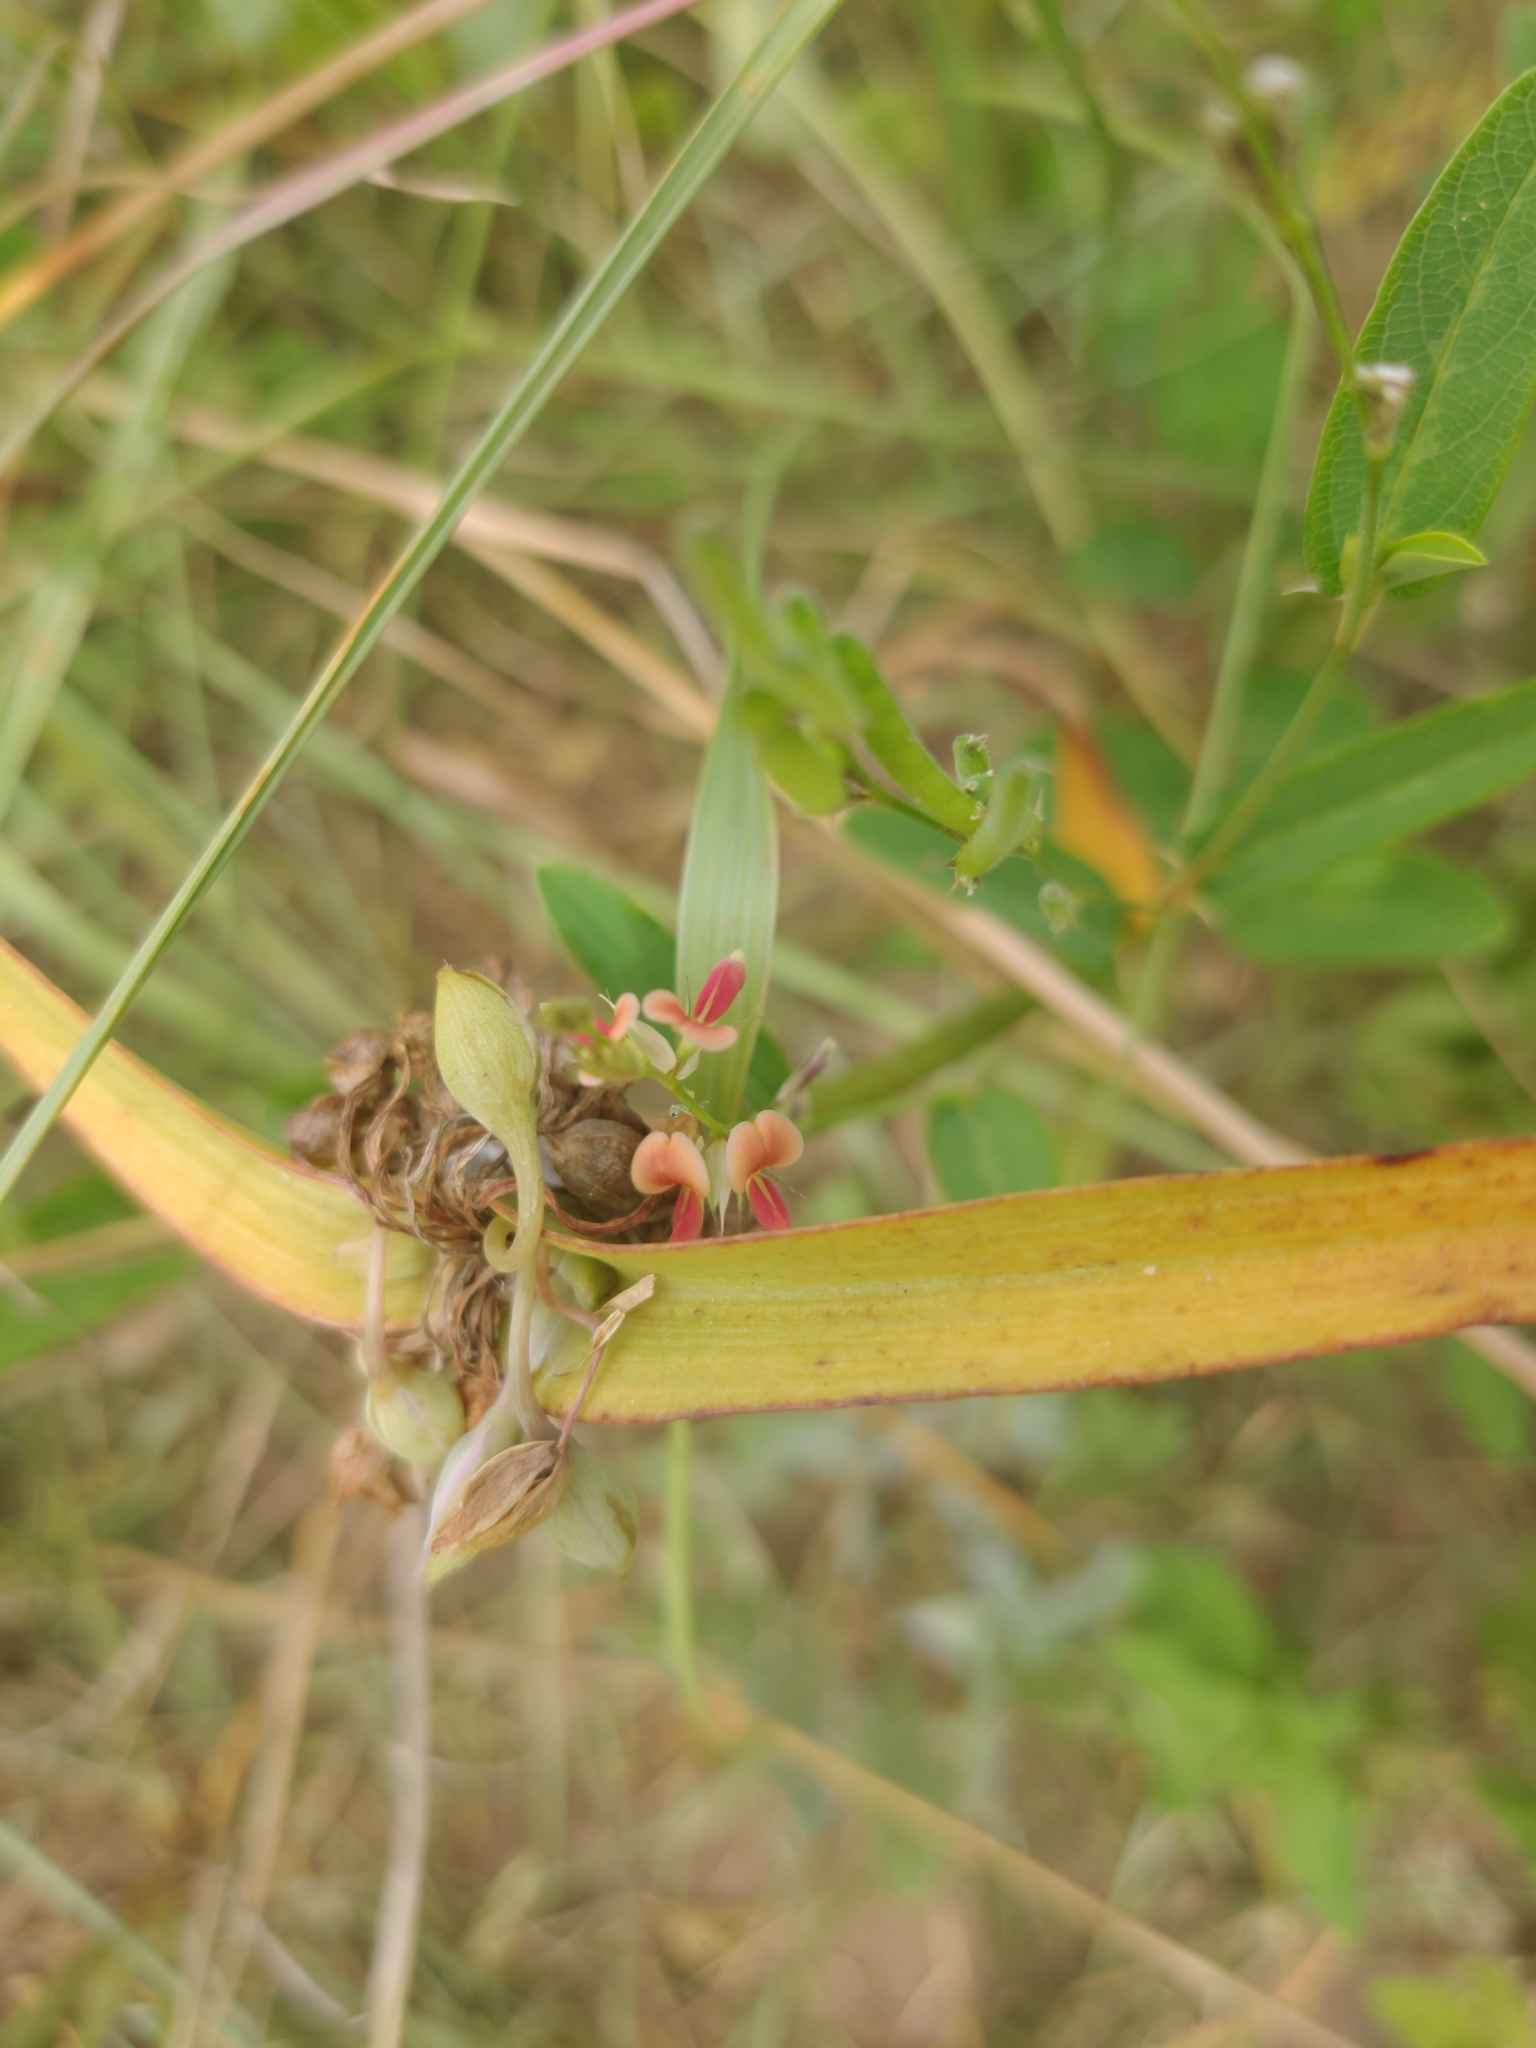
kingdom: Plantae
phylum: Tracheophyta
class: Magnoliopsida
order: Fabales
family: Fabaceae
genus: Alysicarpus
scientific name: Alysicarpus vaginalis
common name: White moneywort
